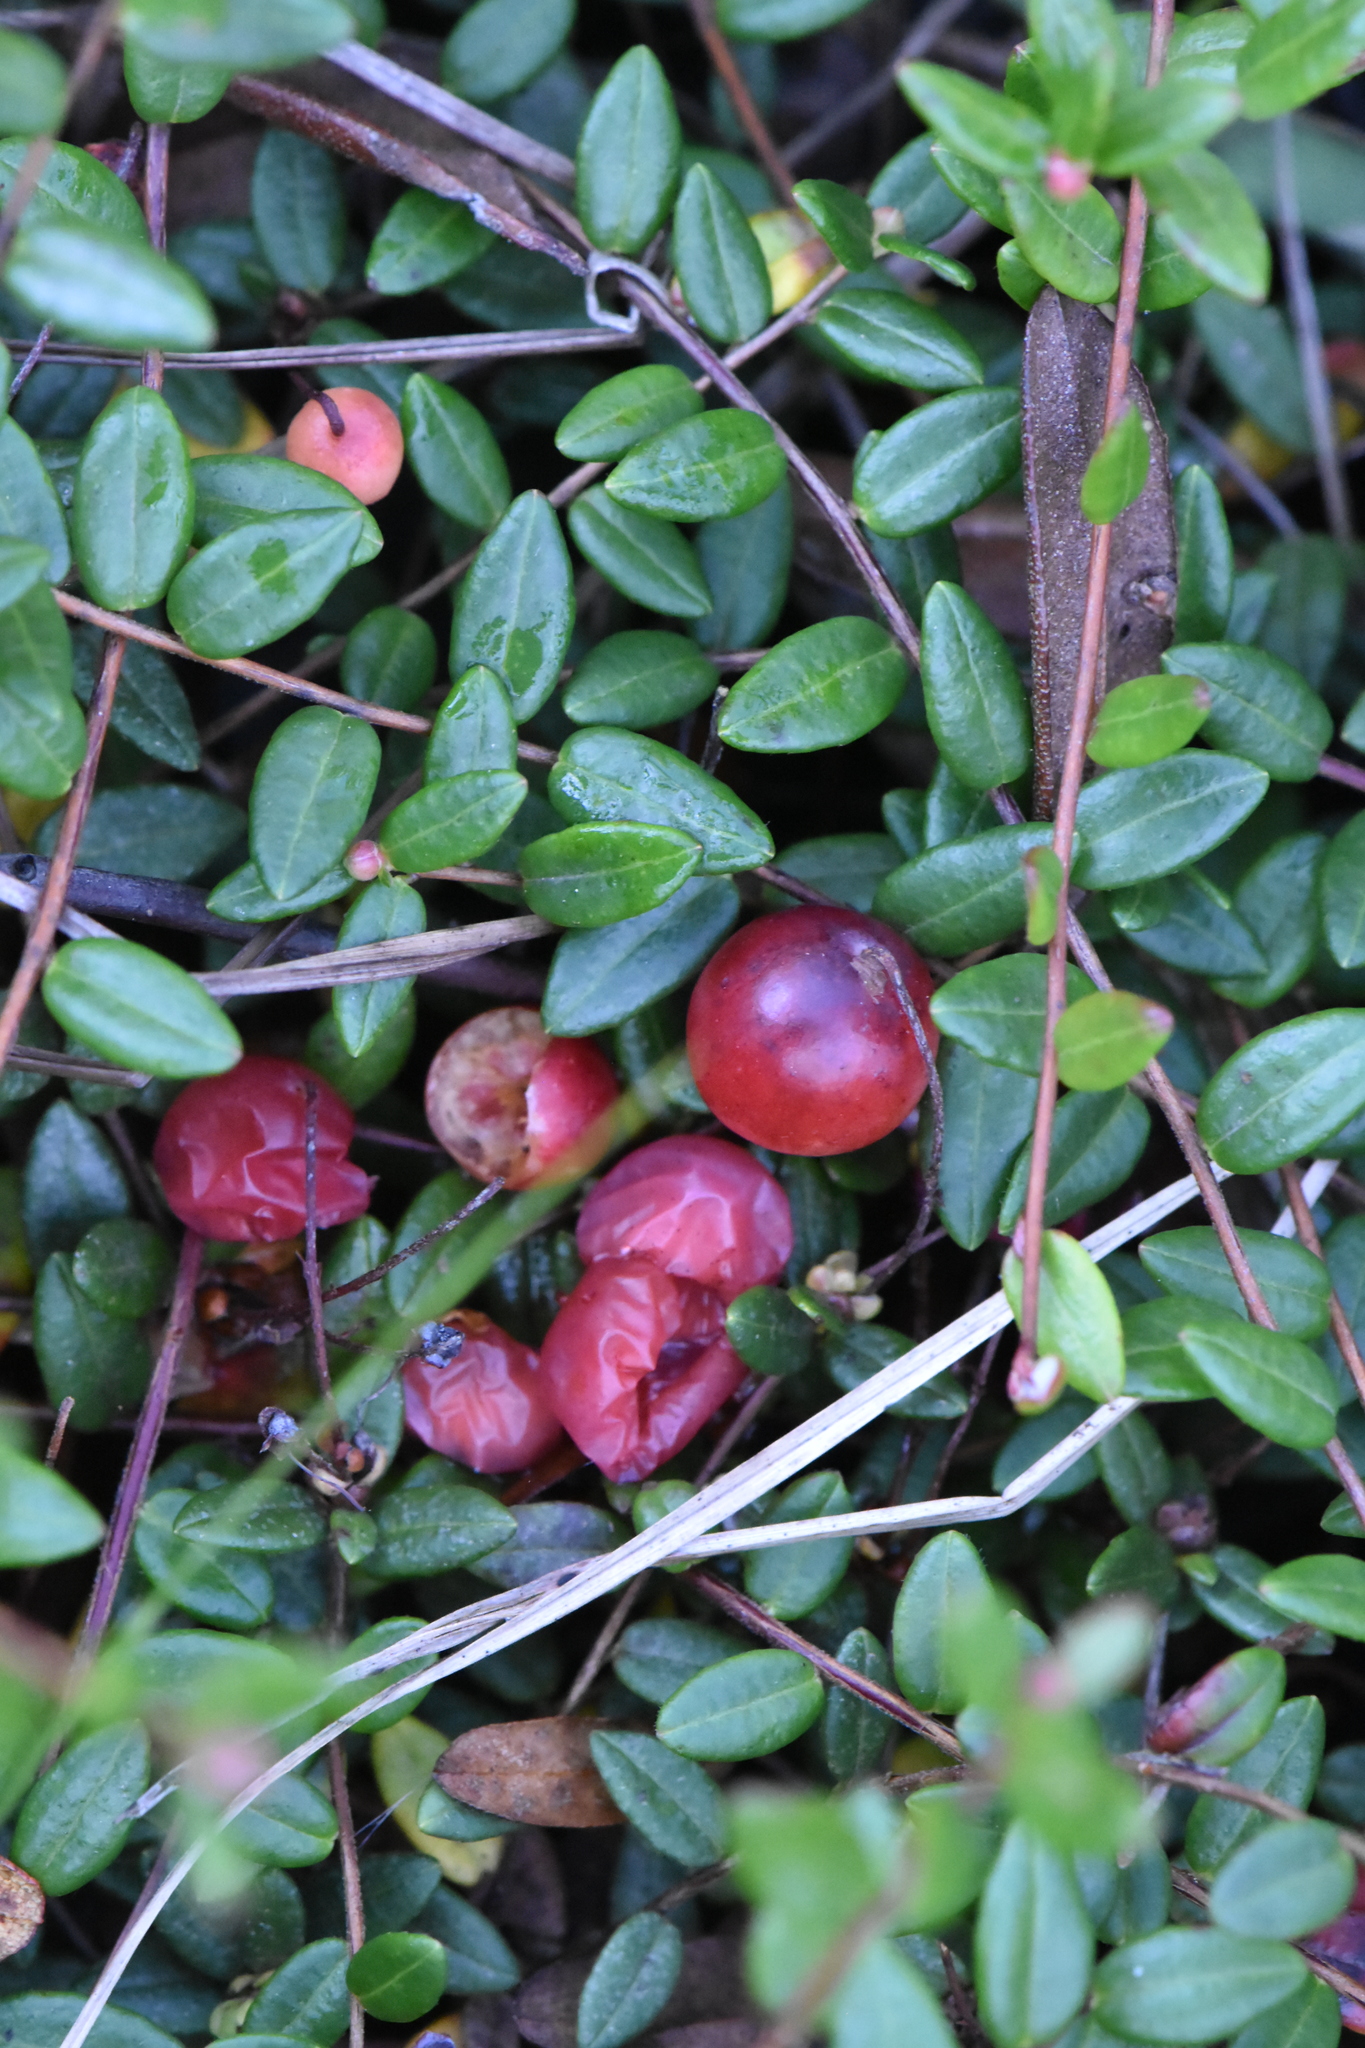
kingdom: Plantae
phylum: Tracheophyta
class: Magnoliopsida
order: Ericales
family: Ericaceae
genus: Vaccinium
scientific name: Vaccinium oxycoccos
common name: Cranberry
